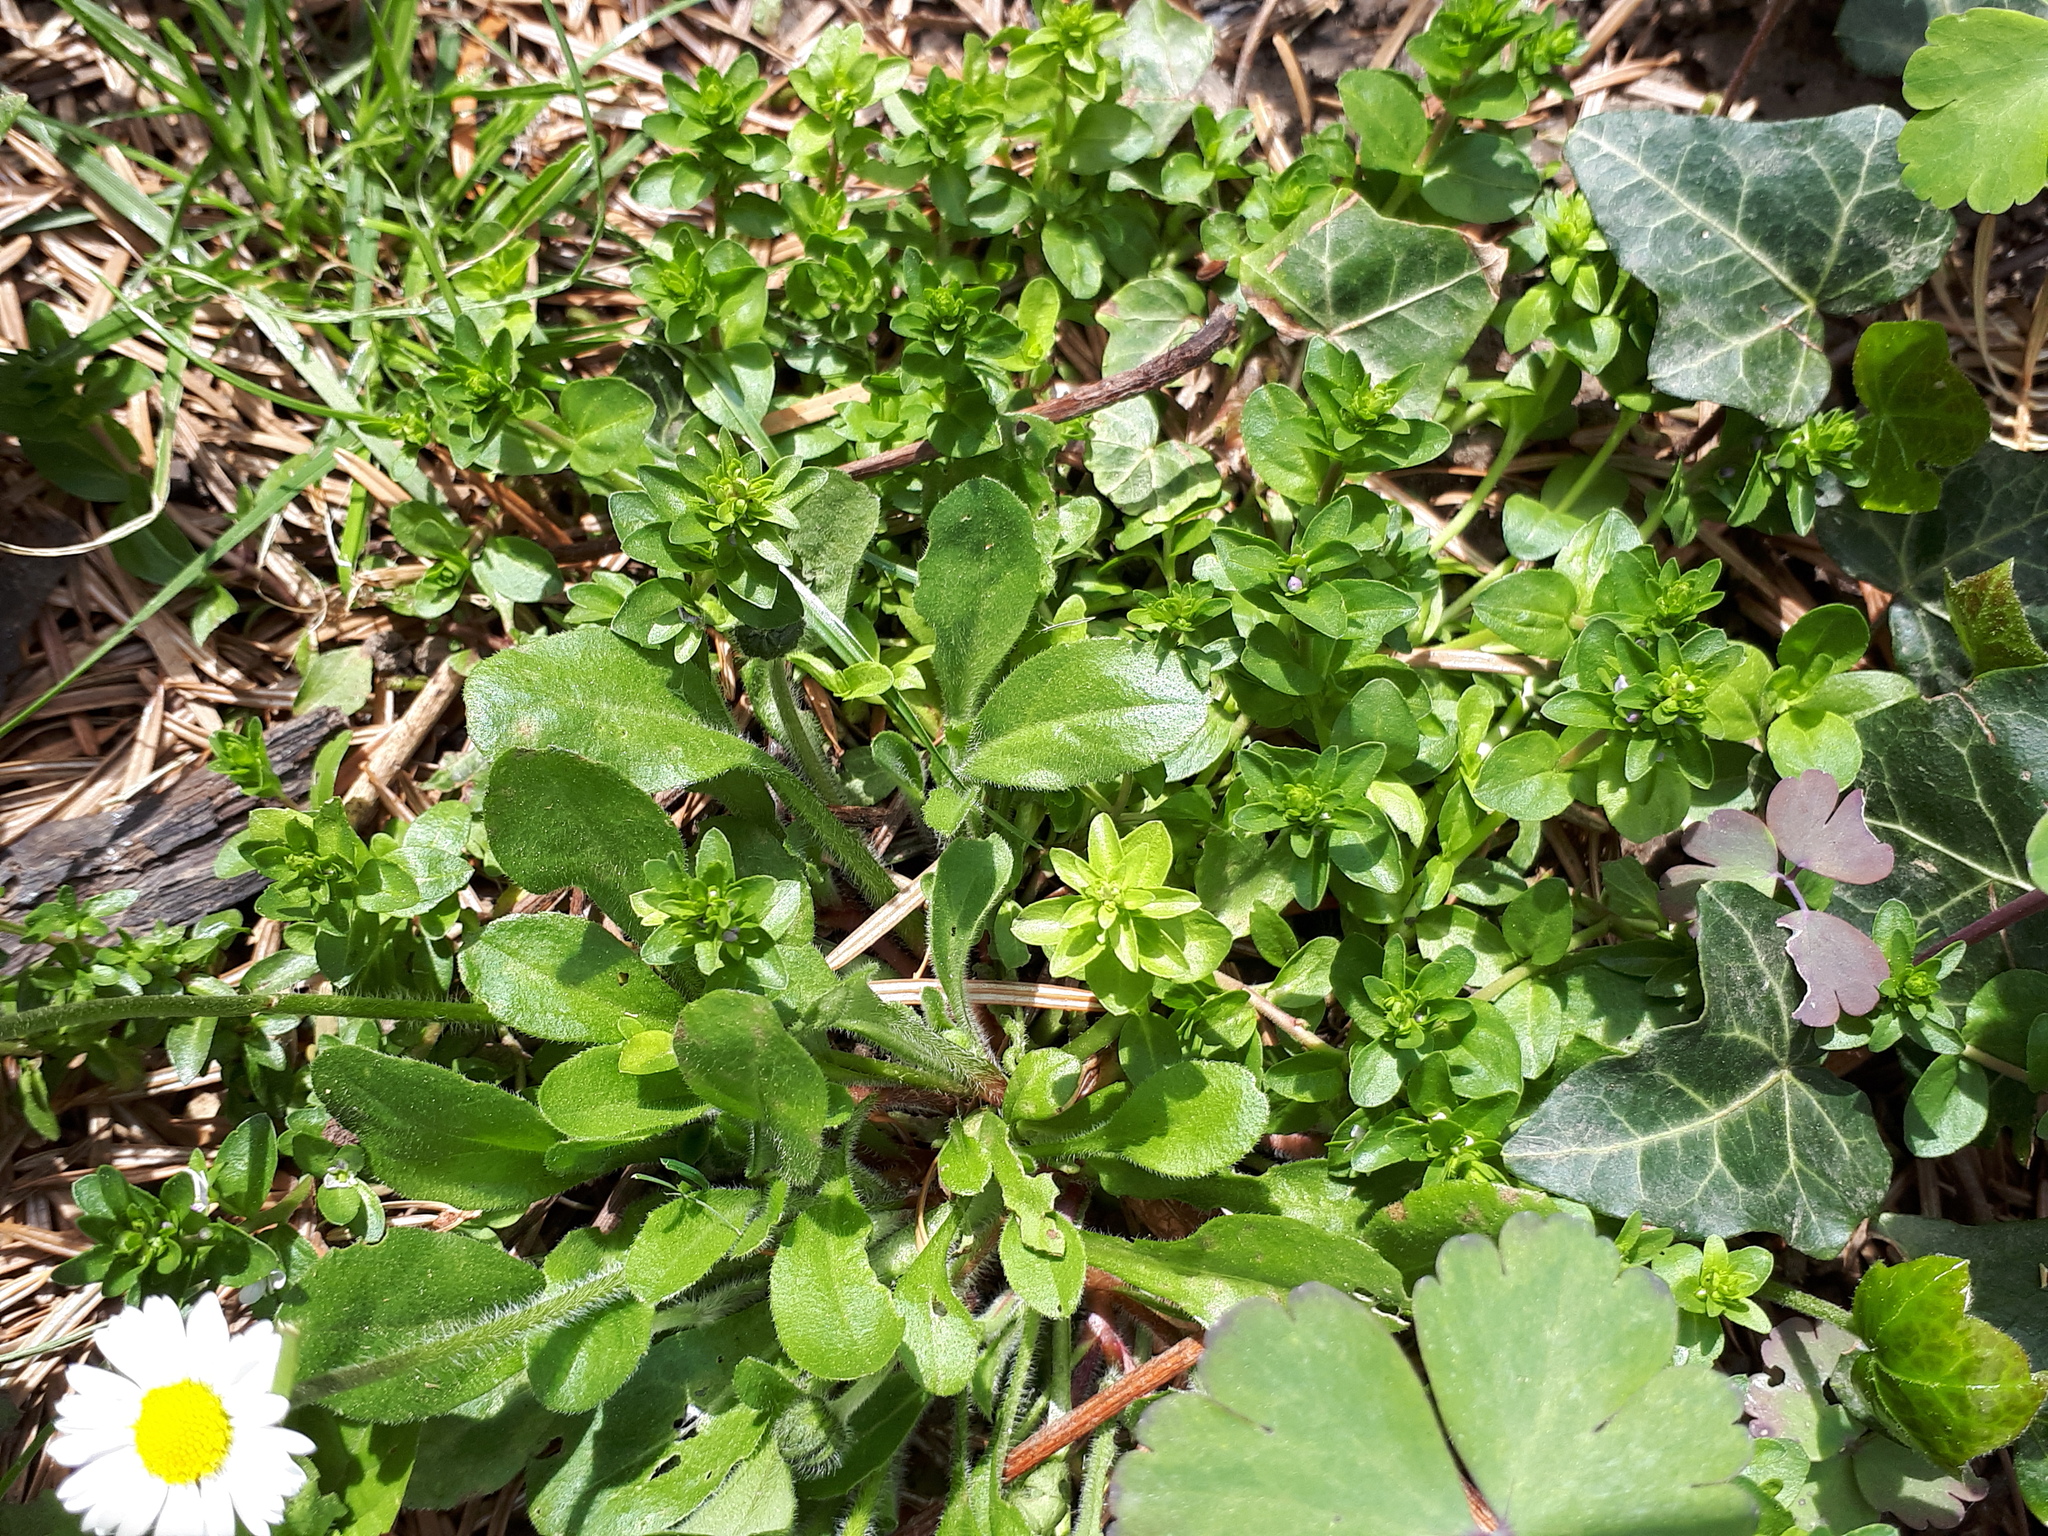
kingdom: Plantae
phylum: Tracheophyta
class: Magnoliopsida
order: Lamiales
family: Plantaginaceae
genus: Veronica
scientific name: Veronica serpyllifolia
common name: Thyme-leaved speedwell
